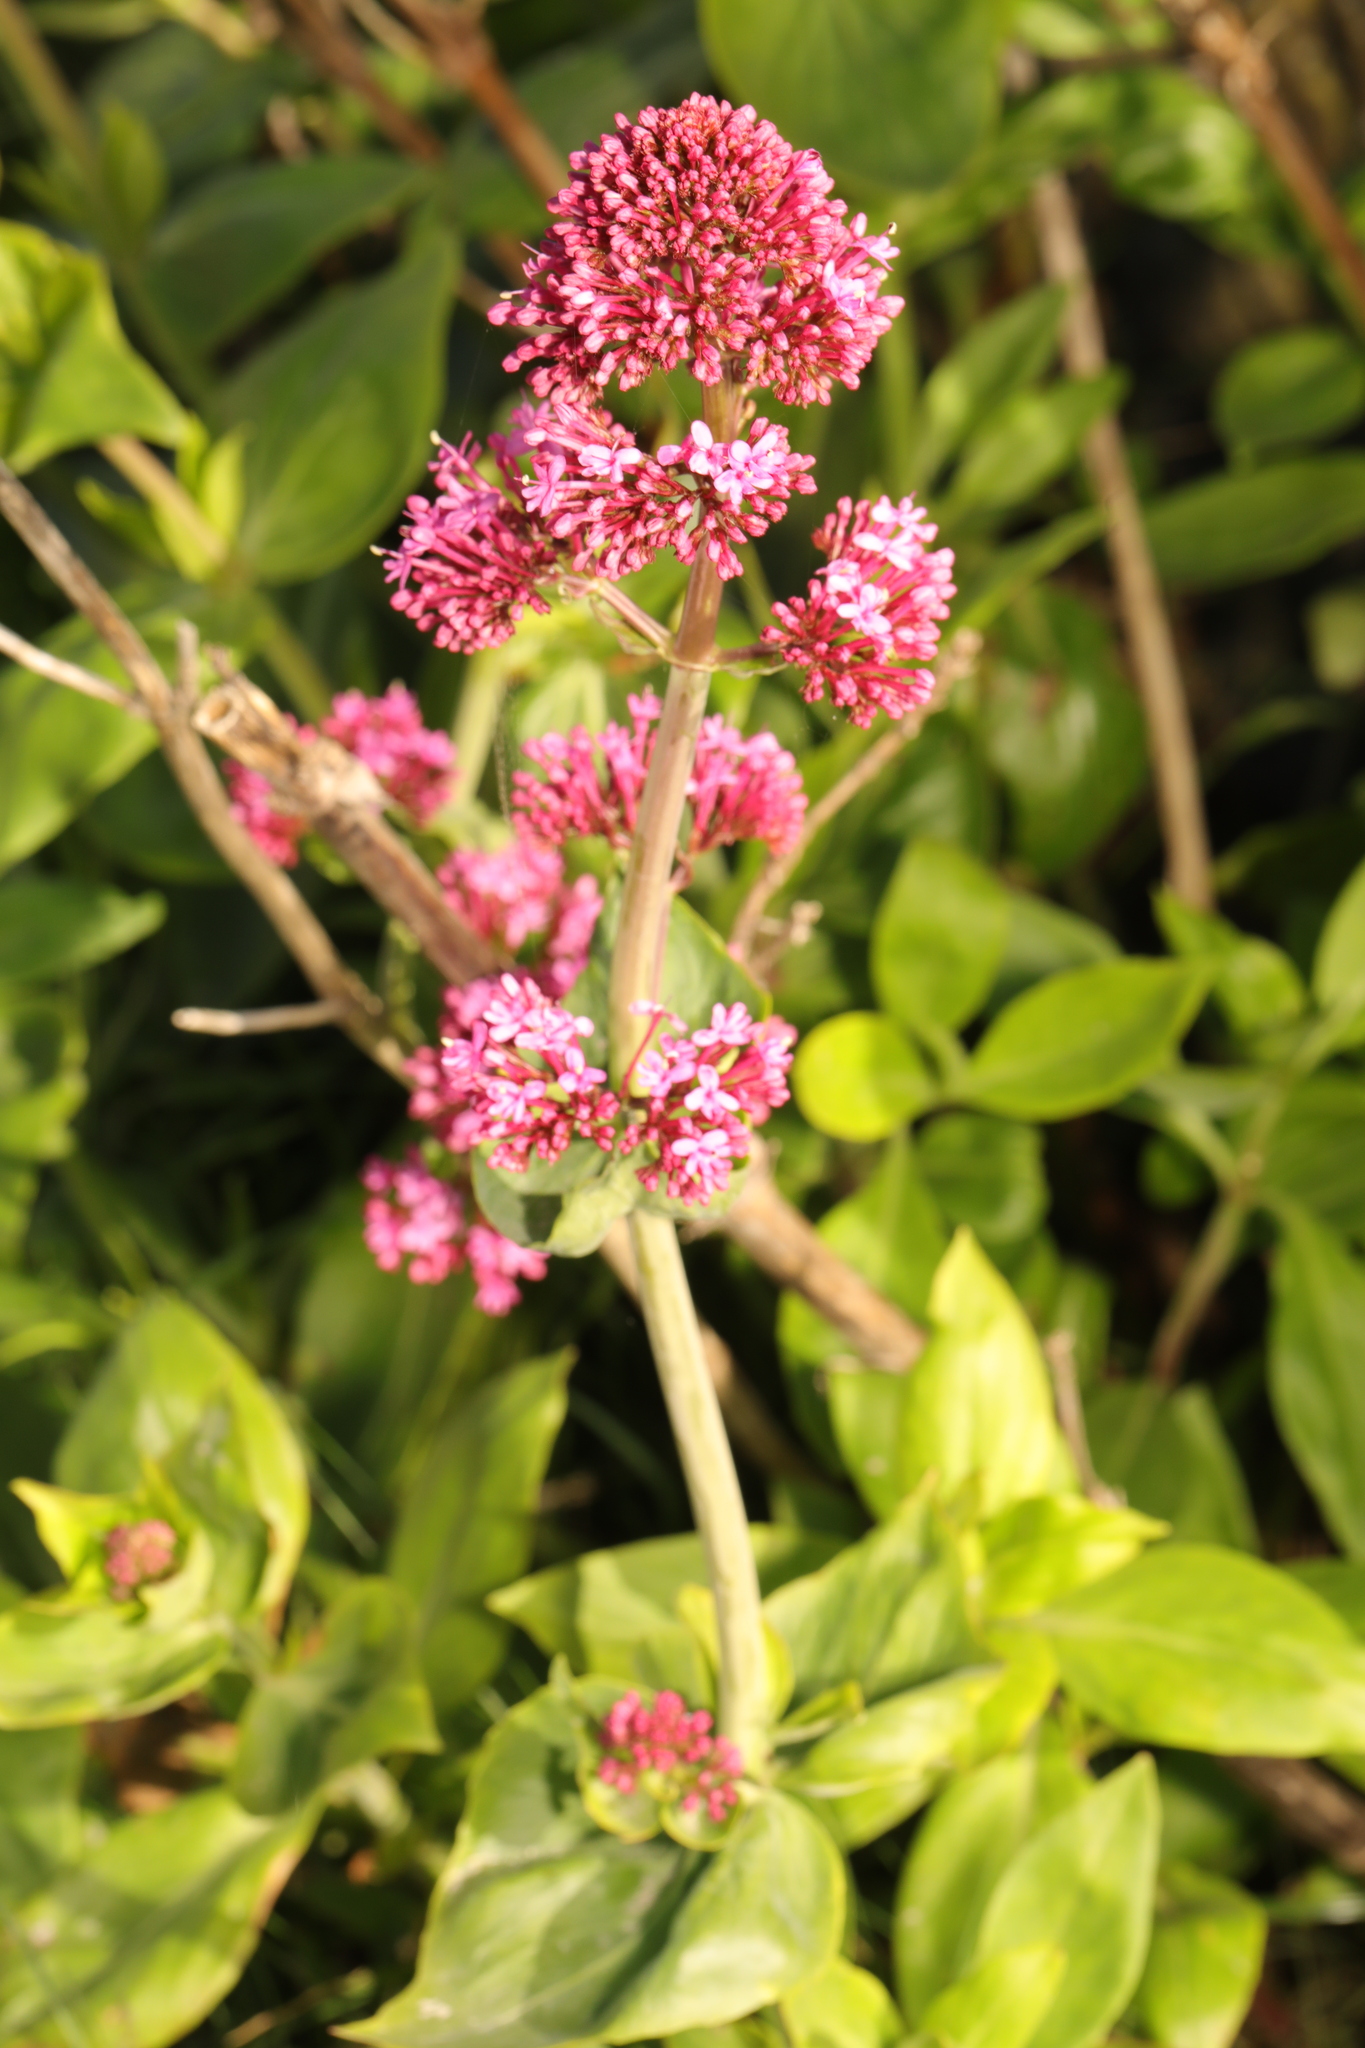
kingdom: Plantae
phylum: Tracheophyta
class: Magnoliopsida
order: Dipsacales
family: Caprifoliaceae
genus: Centranthus
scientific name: Centranthus ruber
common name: Red valerian
